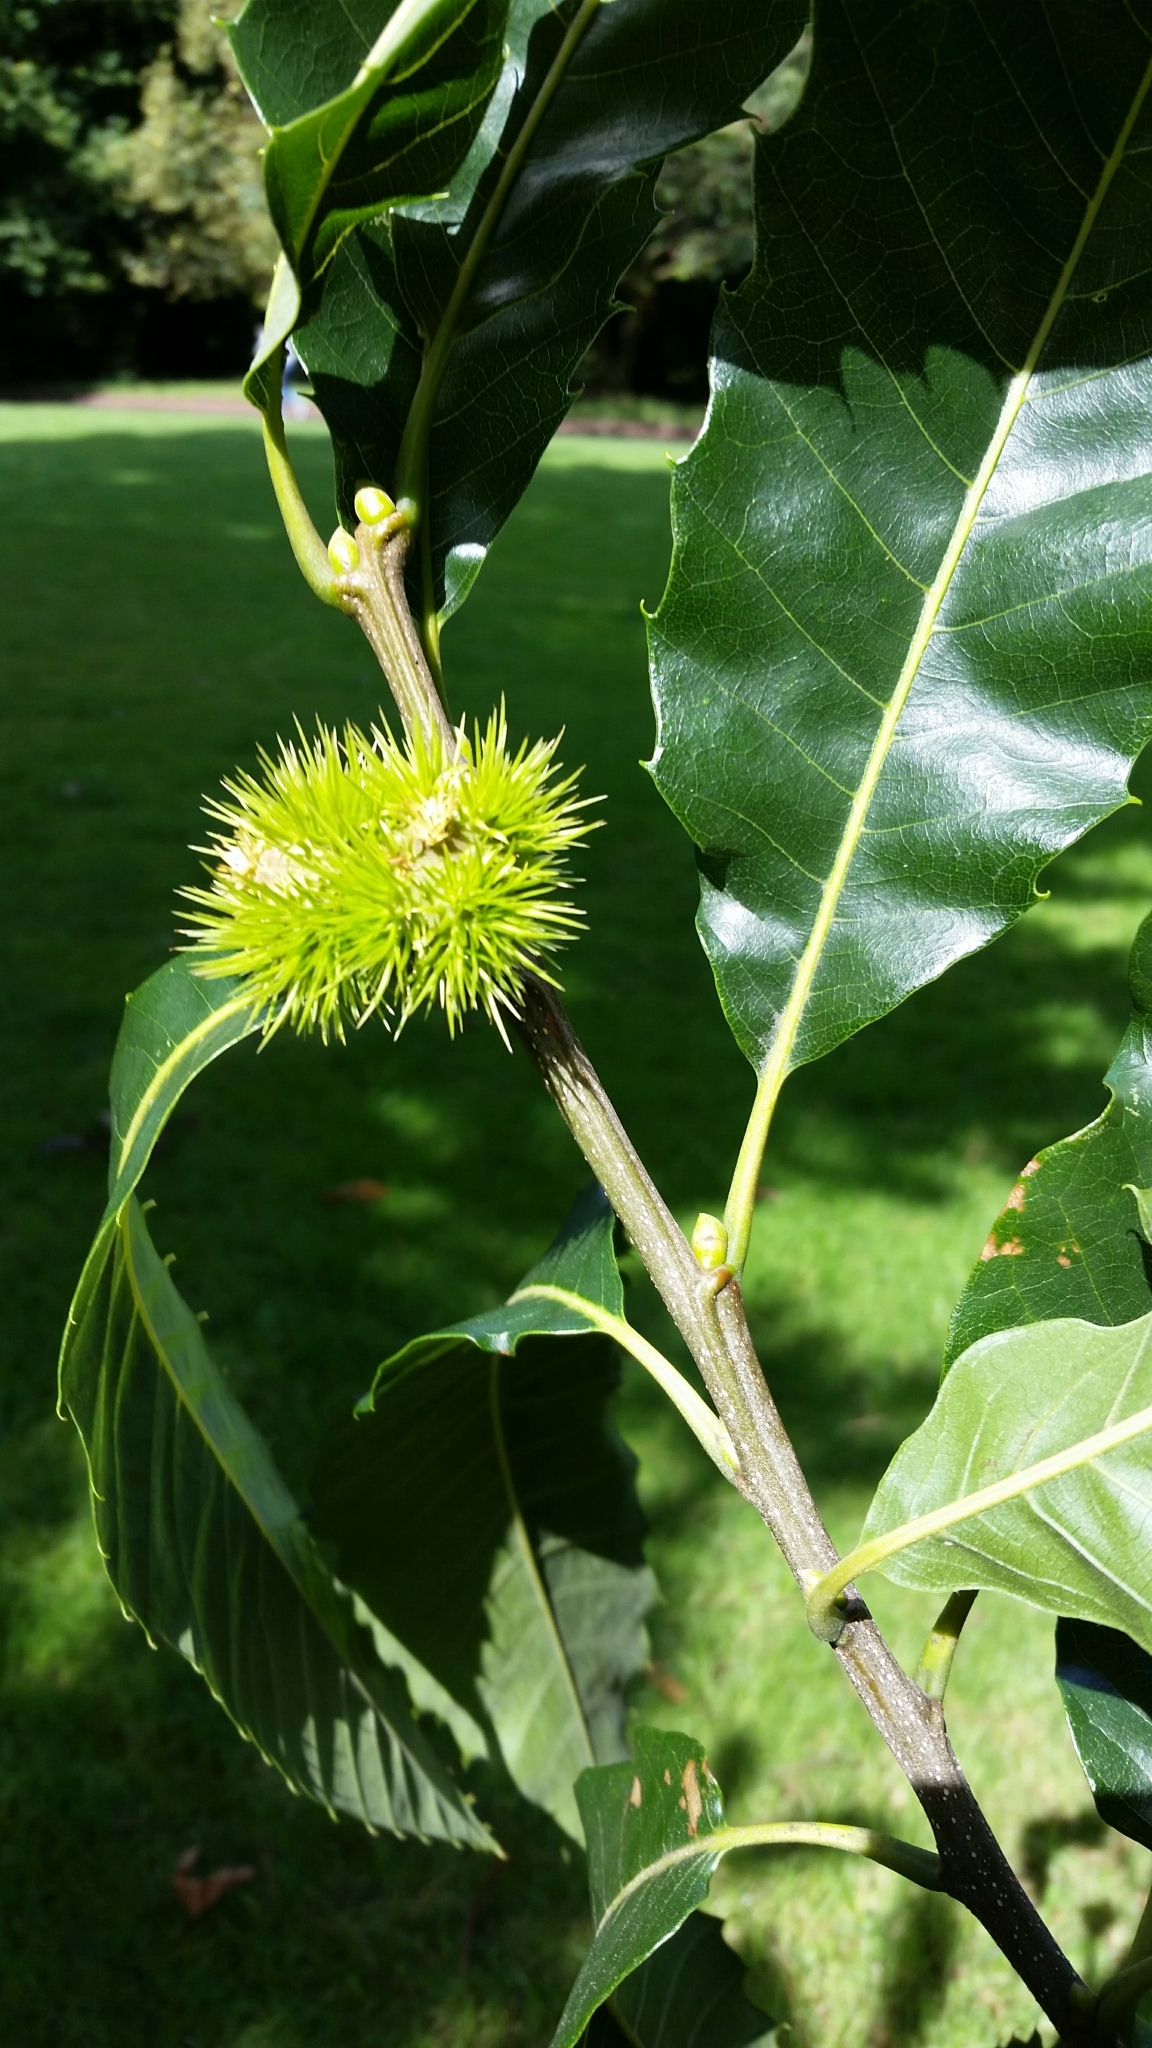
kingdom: Plantae
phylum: Tracheophyta
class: Magnoliopsida
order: Fagales
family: Fagaceae
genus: Castanea
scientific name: Castanea sativa
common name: Sweet chestnut
